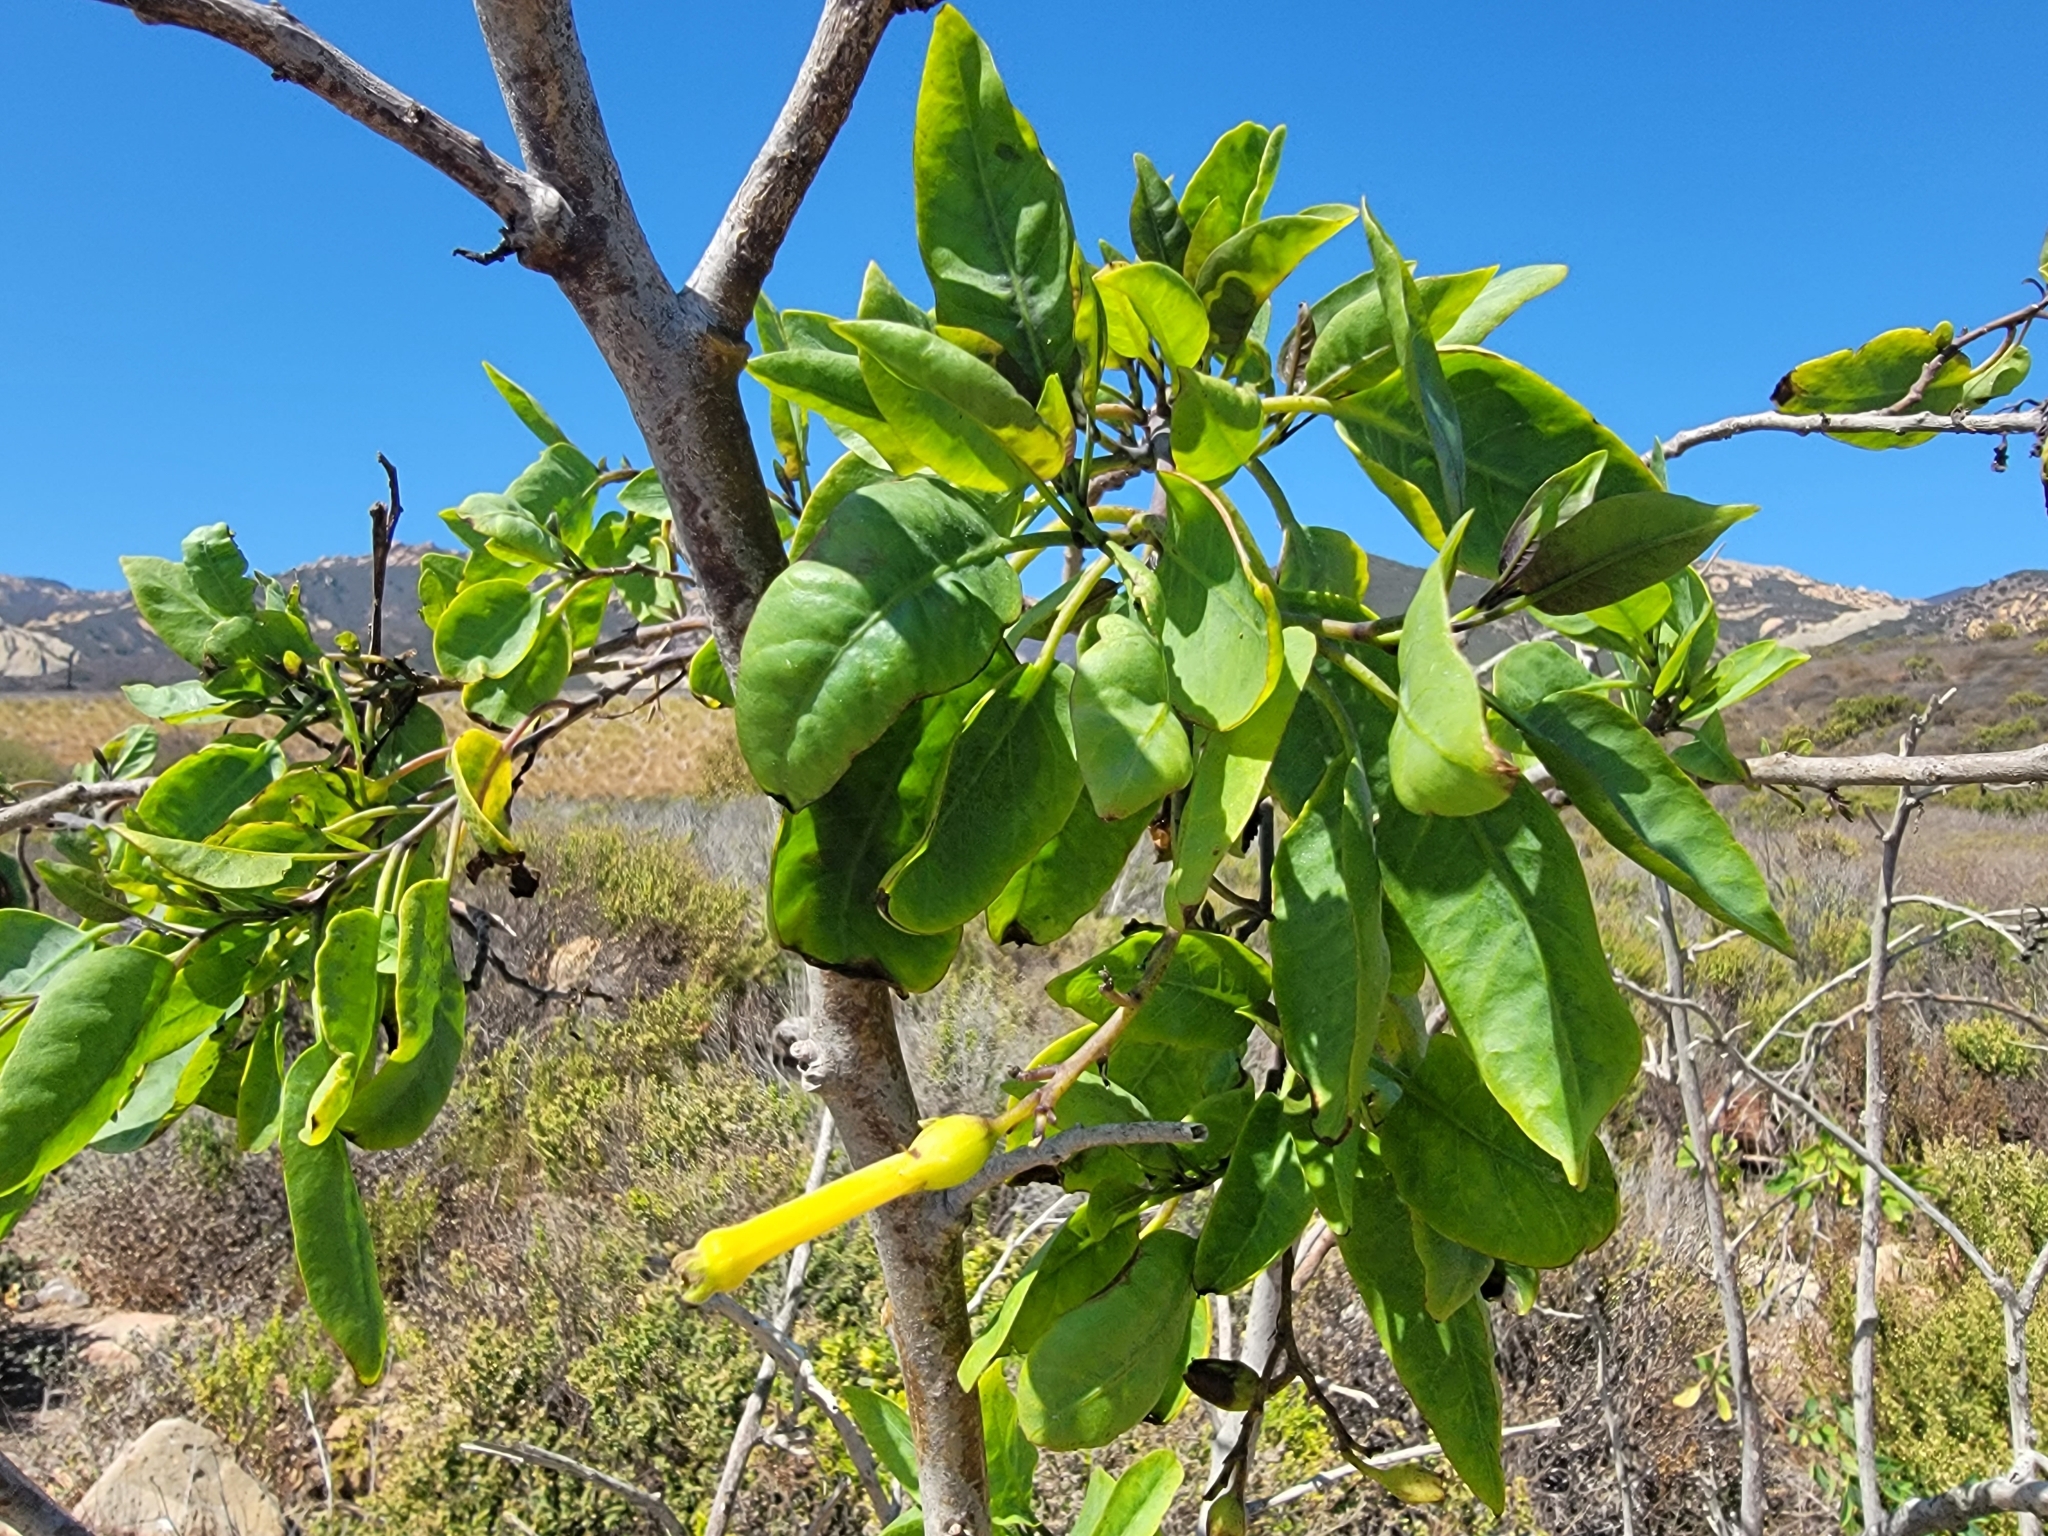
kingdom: Plantae
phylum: Tracheophyta
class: Magnoliopsida
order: Solanales
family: Solanaceae
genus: Nicotiana
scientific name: Nicotiana glauca
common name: Tree tobacco
